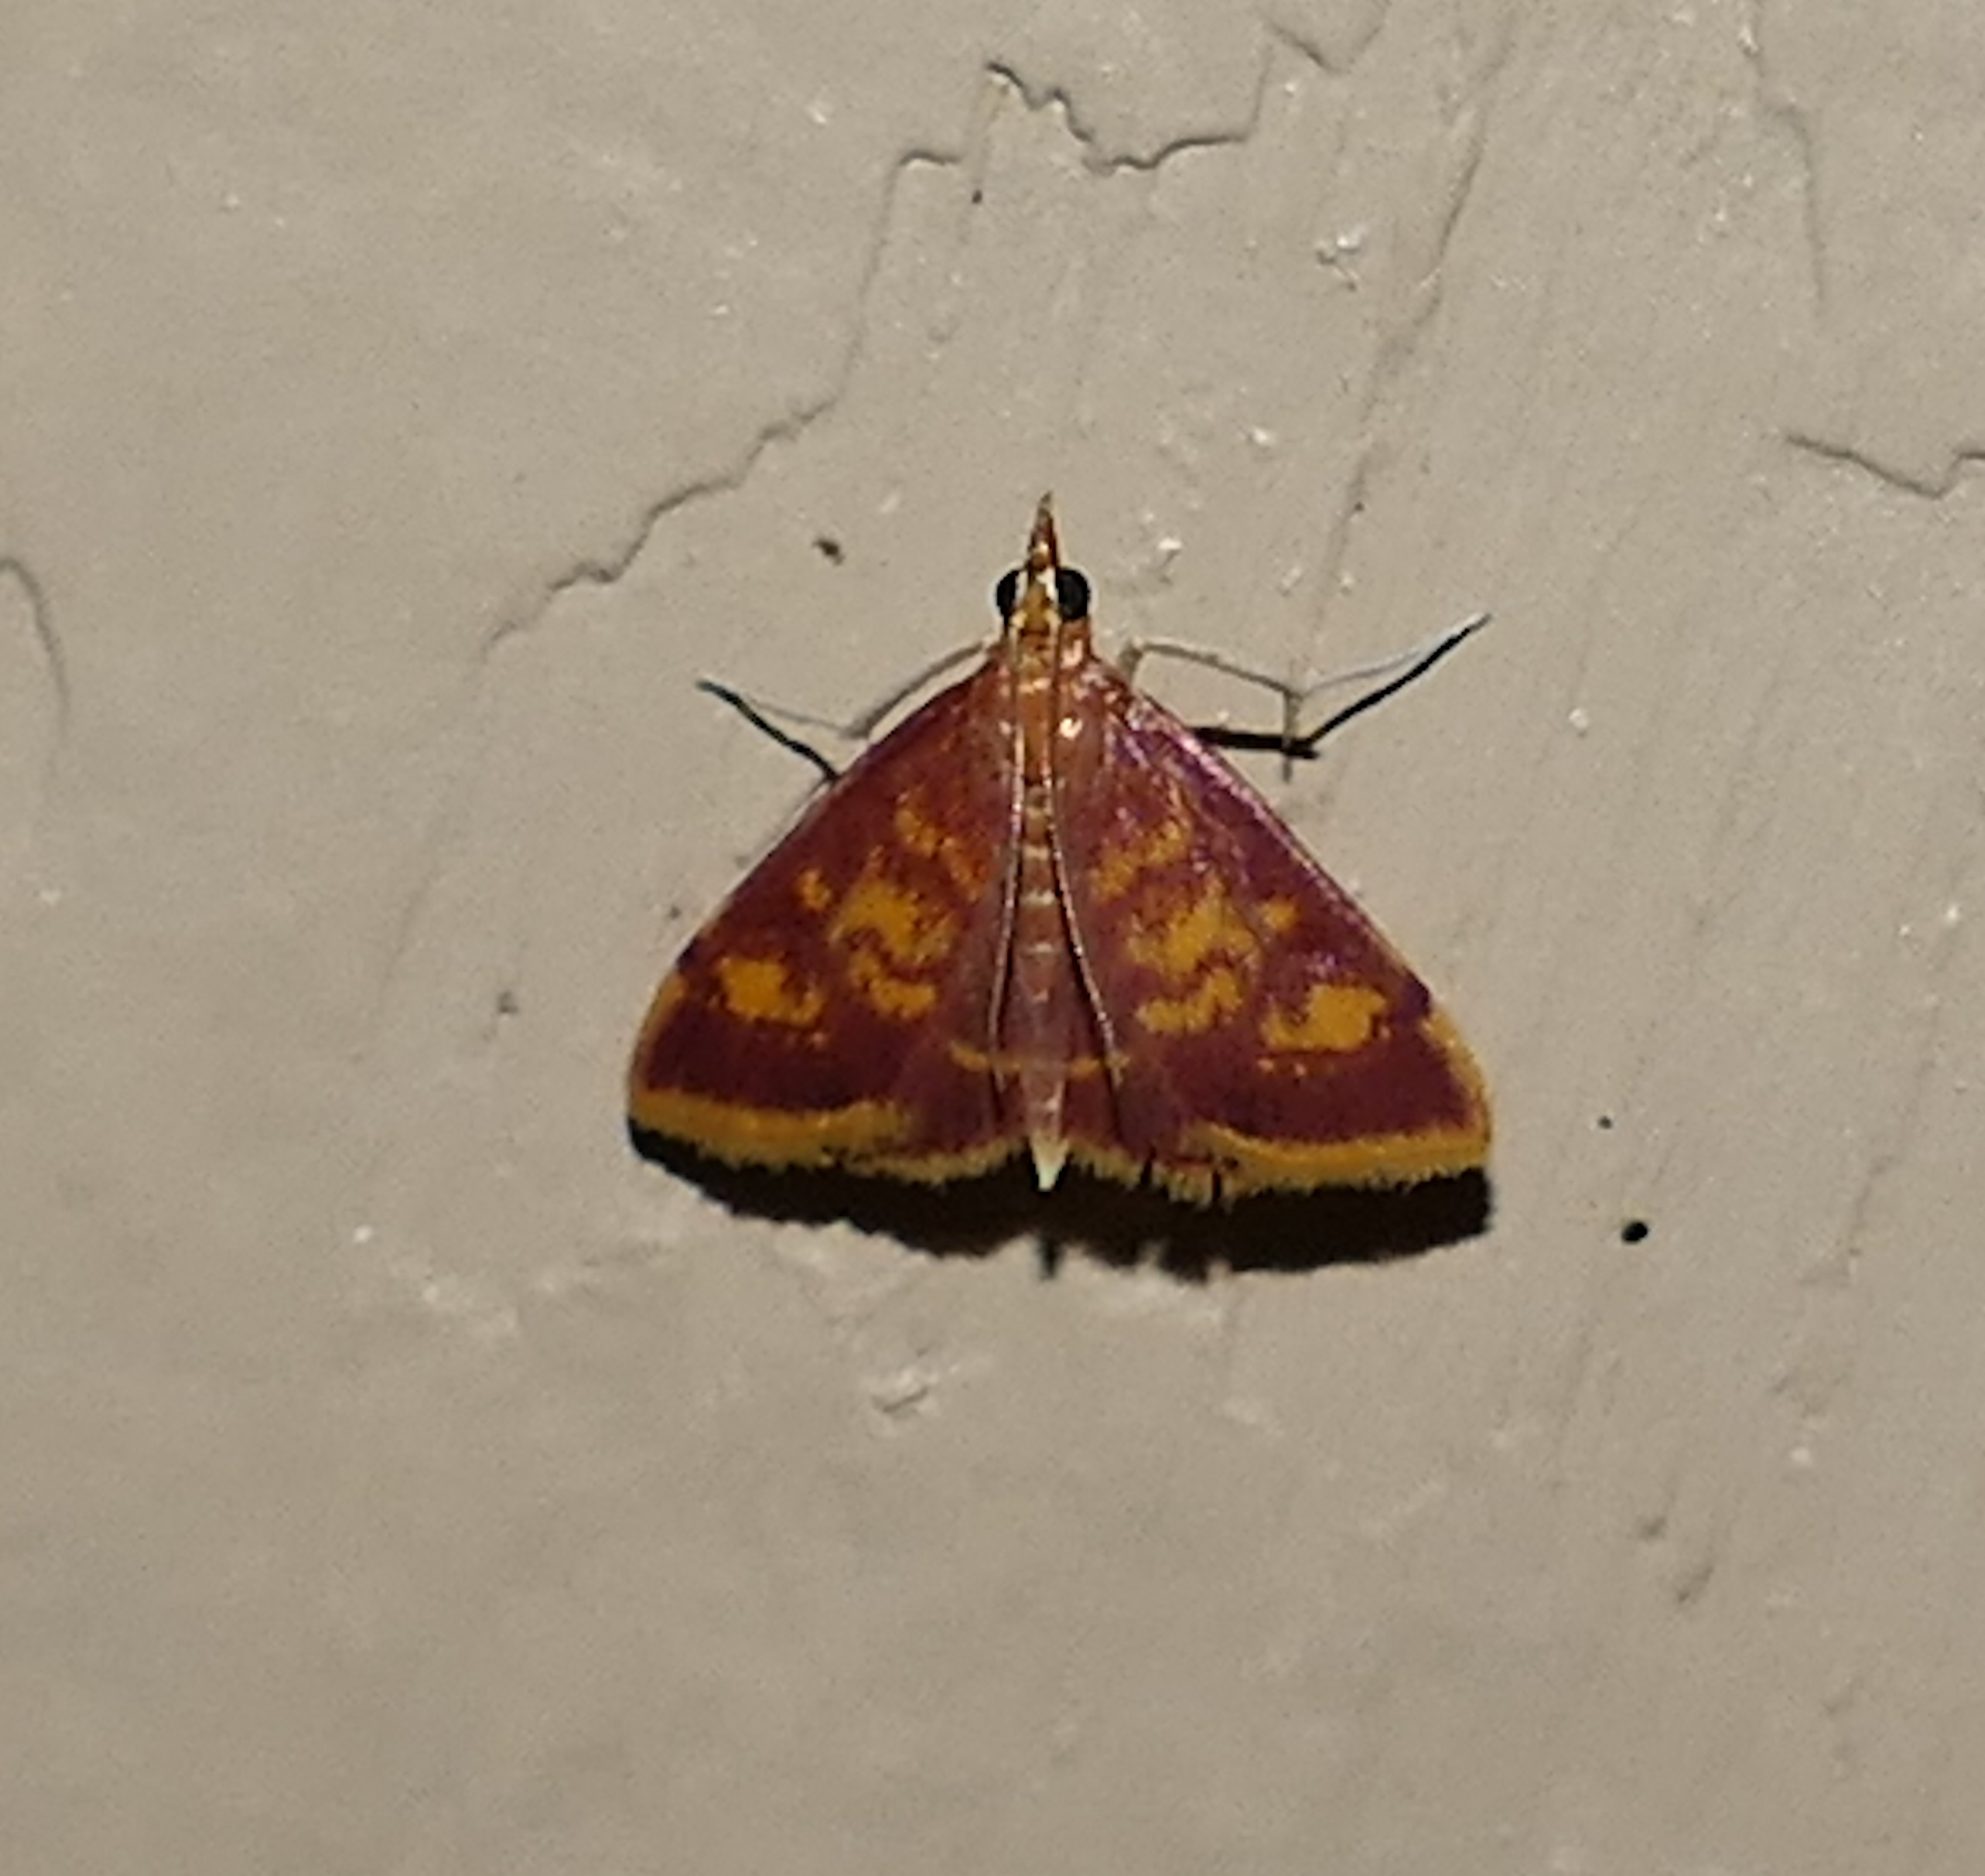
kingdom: Animalia
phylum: Arthropoda
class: Insecta
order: Lepidoptera
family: Crambidae
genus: Pyrausta
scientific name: Pyrausta acrionalis
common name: Mint-loving pyrausta moth
